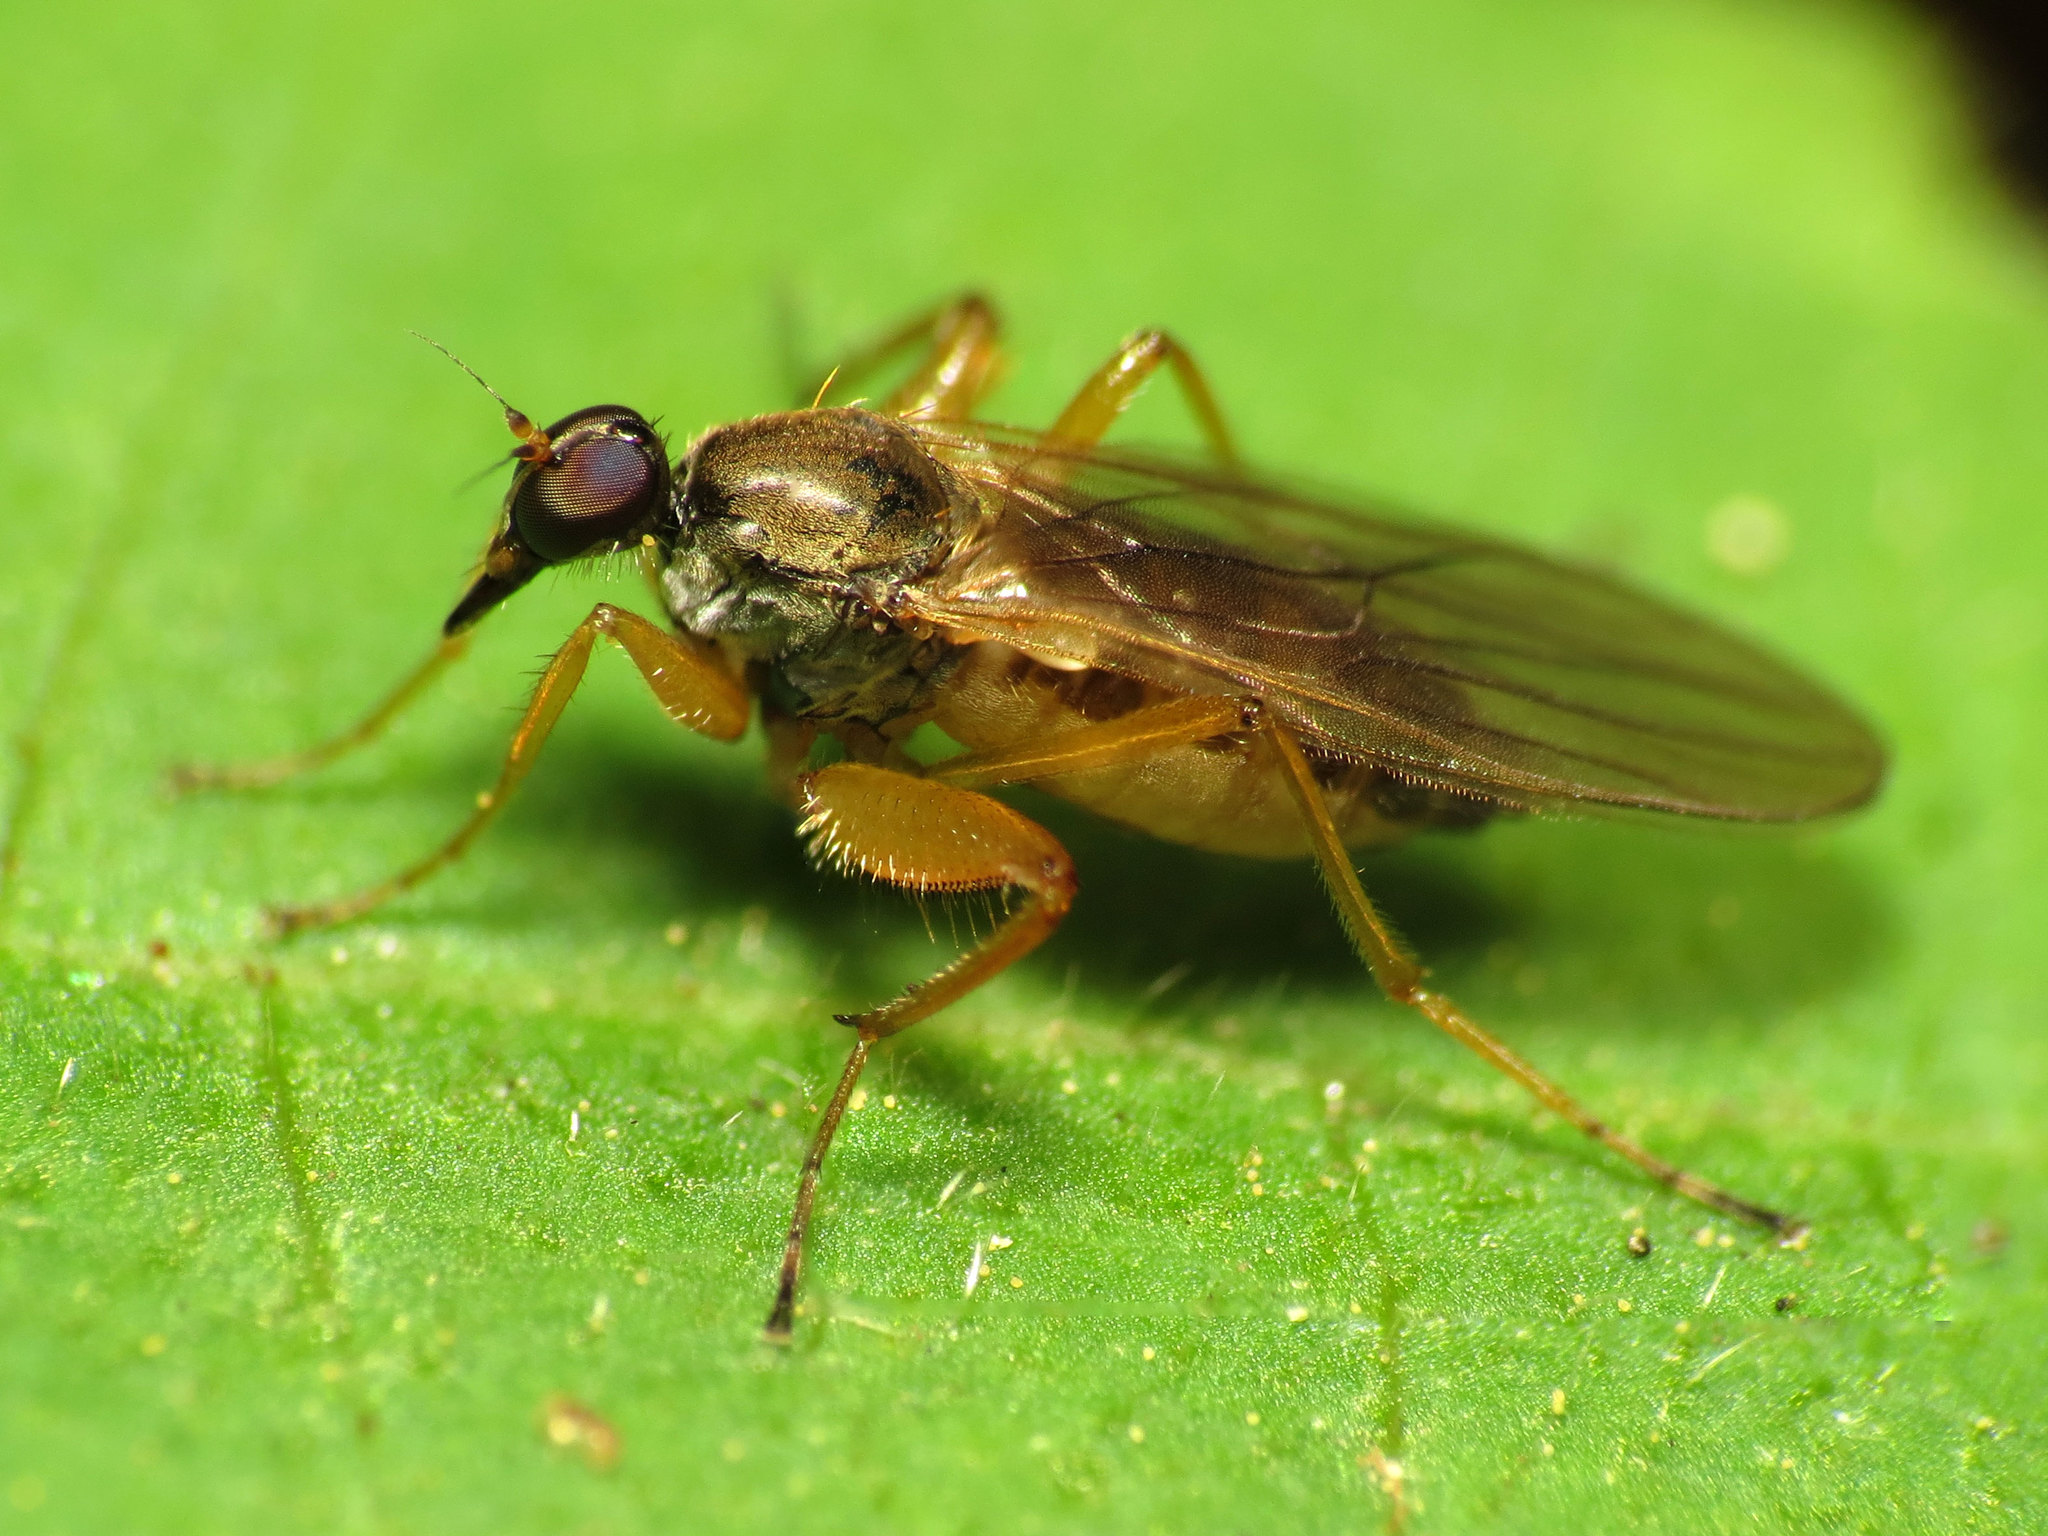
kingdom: Animalia
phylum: Arthropoda
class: Insecta
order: Diptera
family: Hybotidae
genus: Platypalpus
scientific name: Platypalpus discifer
